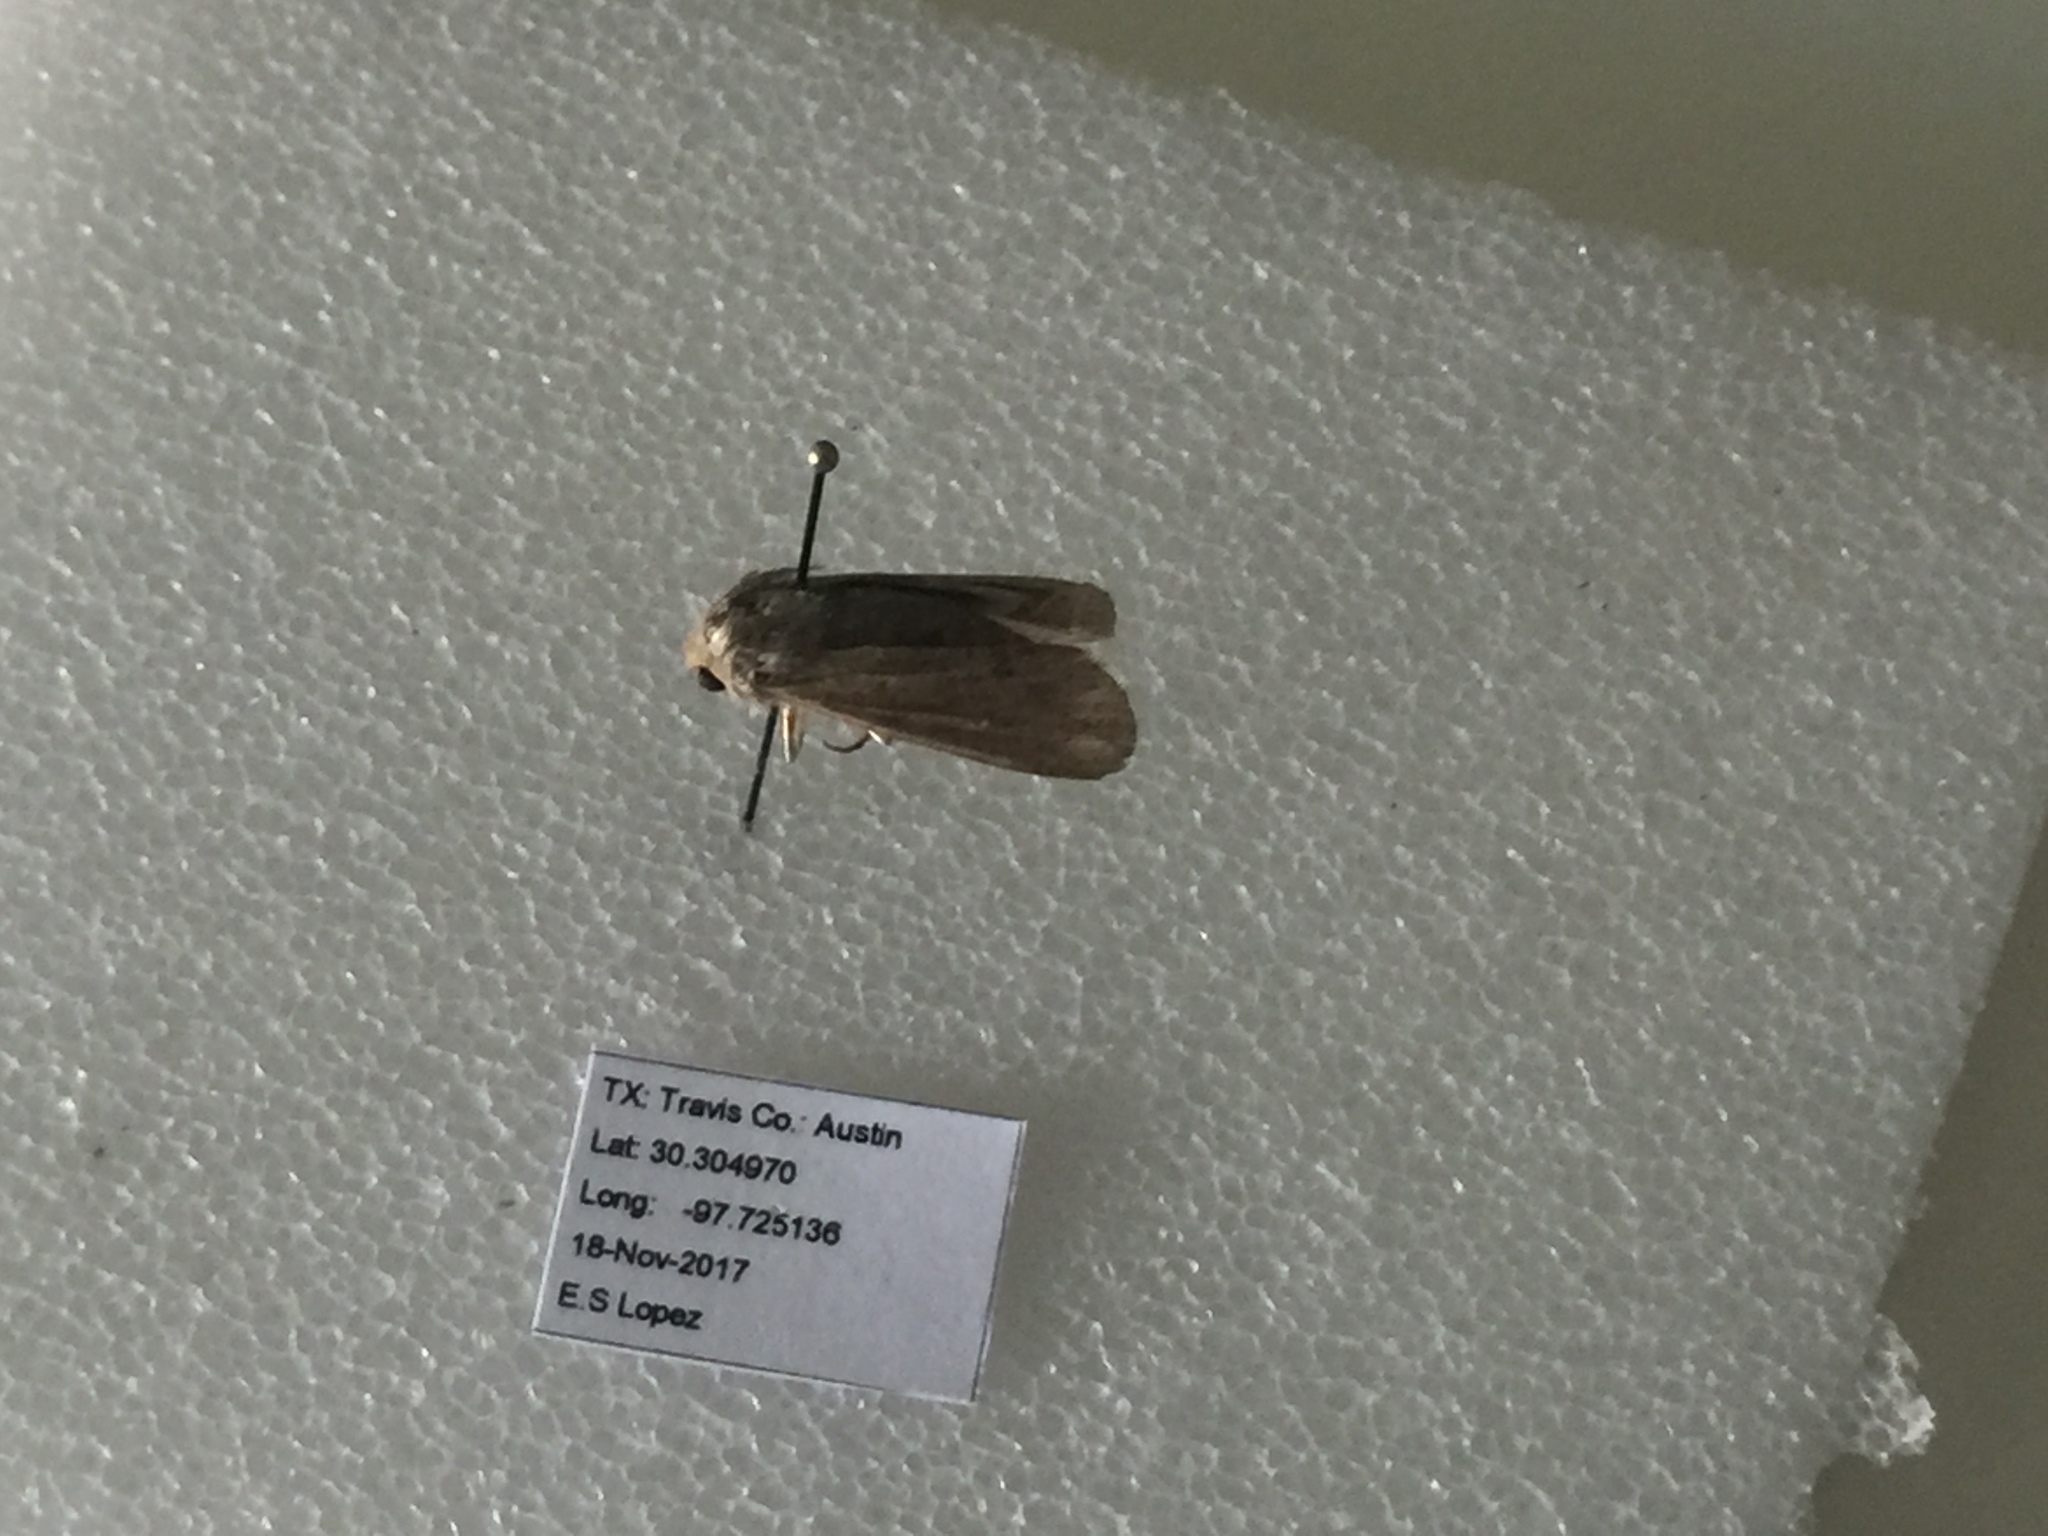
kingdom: Animalia
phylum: Arthropoda
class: Insecta
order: Lepidoptera
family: Noctuidae
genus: Mythimna
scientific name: Mythimna unipuncta
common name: White-speck
